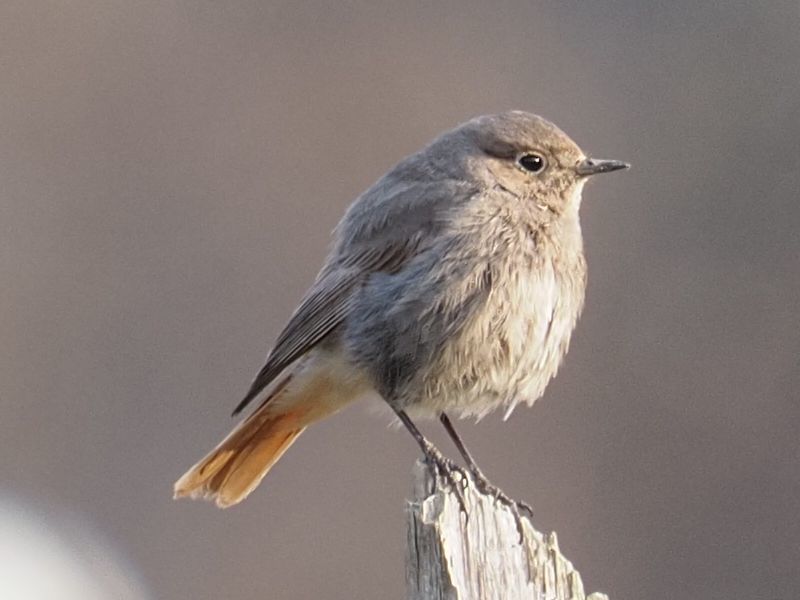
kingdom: Animalia
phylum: Chordata
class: Aves
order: Passeriformes
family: Muscicapidae
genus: Phoenicurus
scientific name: Phoenicurus ochruros
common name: Black redstart
